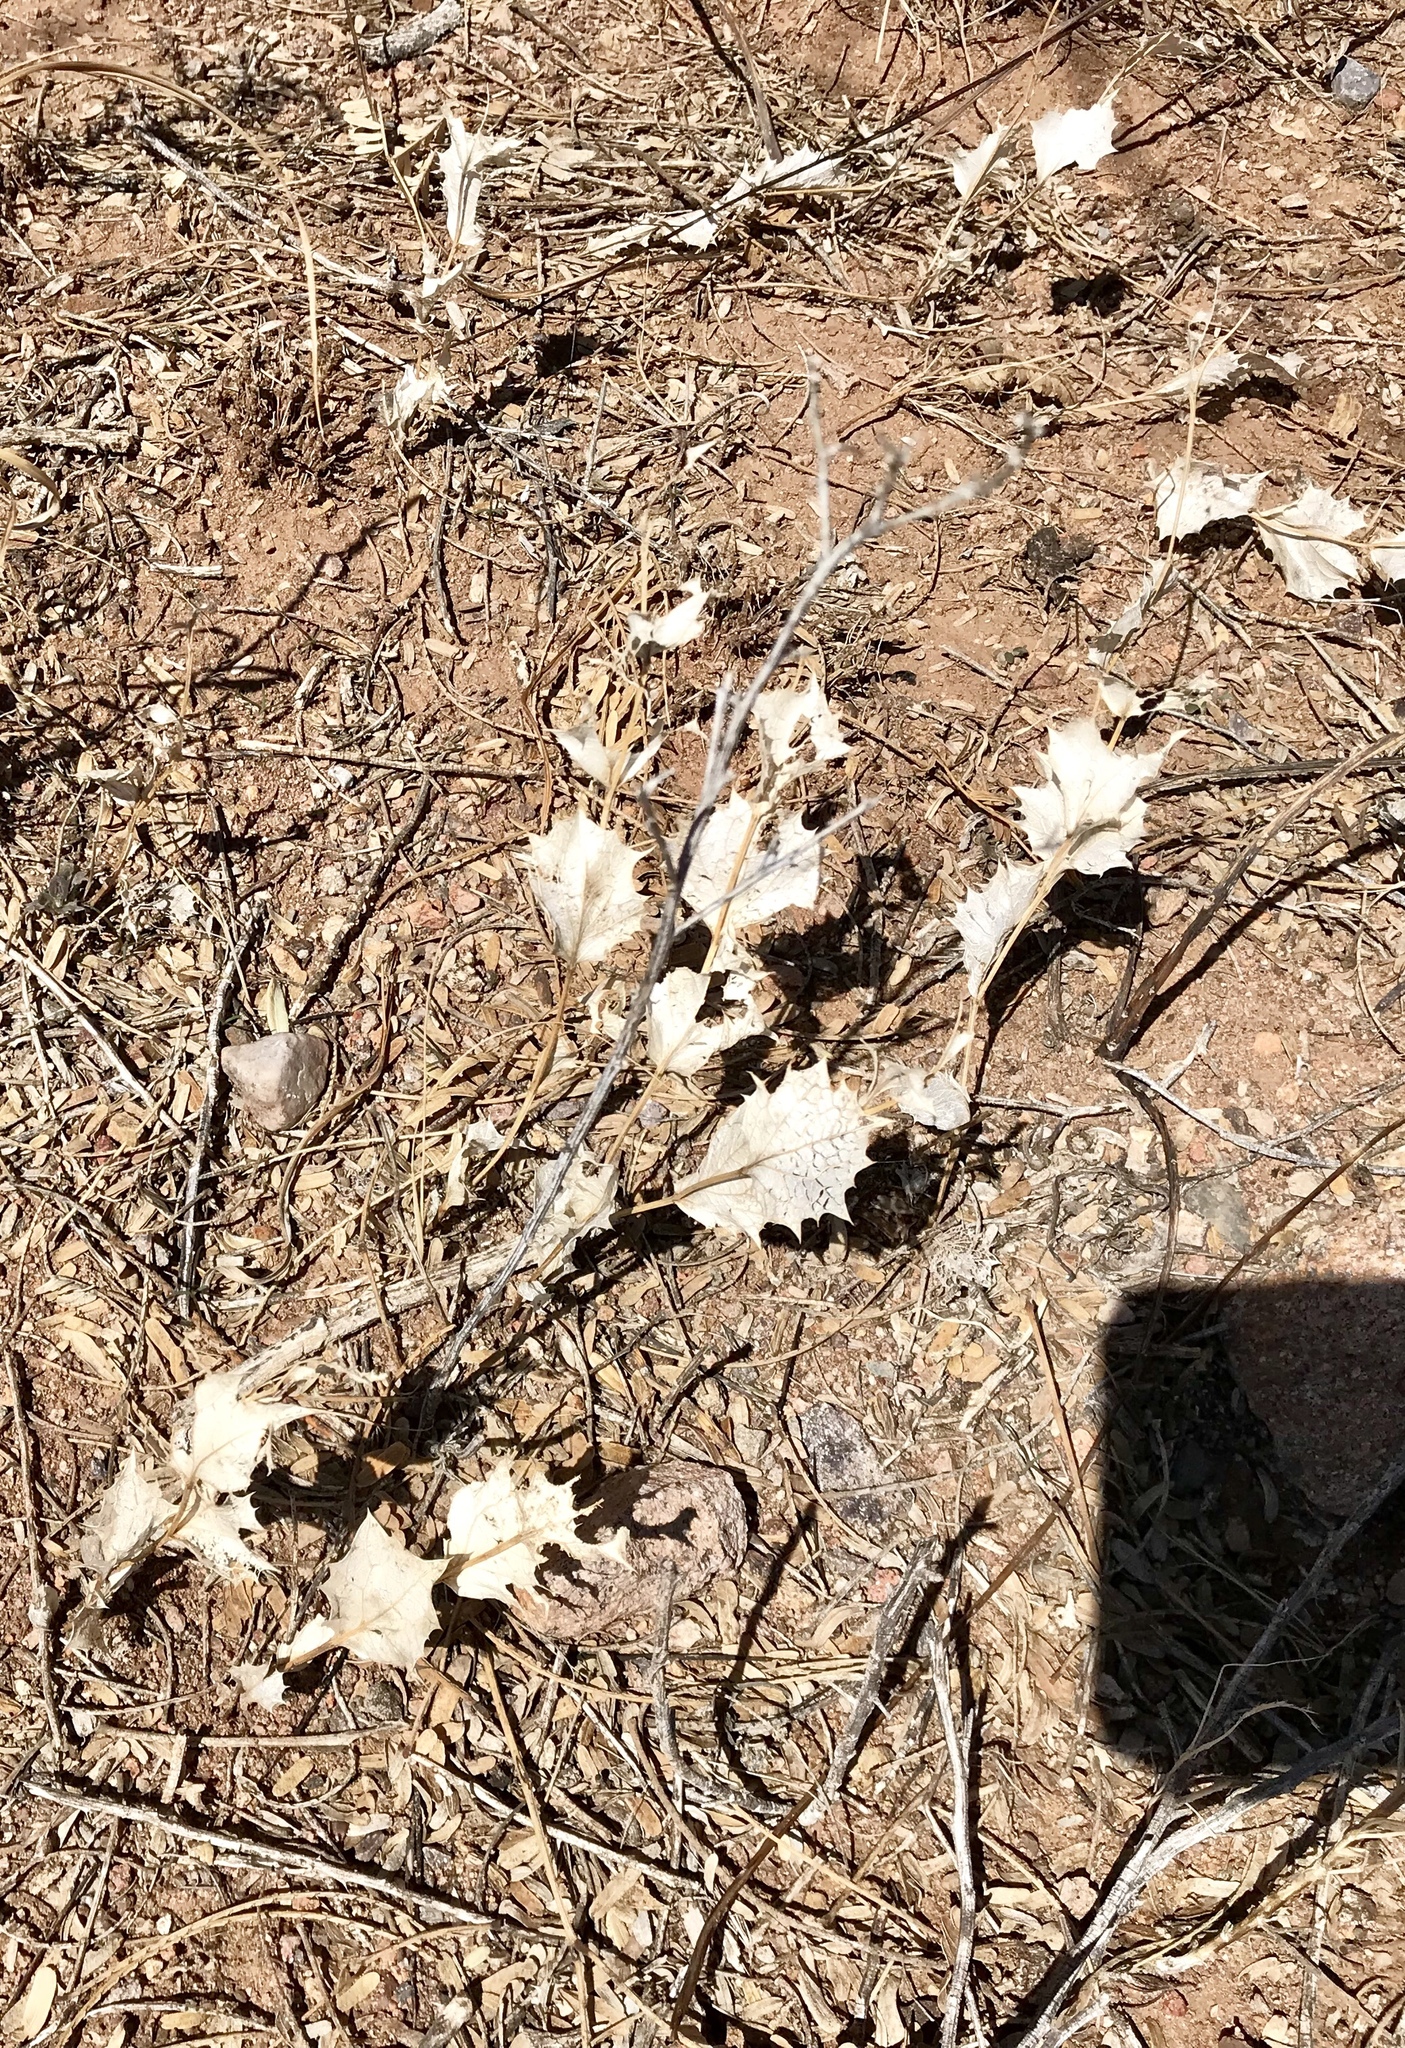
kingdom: Plantae
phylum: Tracheophyta
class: Magnoliopsida
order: Asterales
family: Asteraceae
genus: Acourtia
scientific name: Acourtia nana
